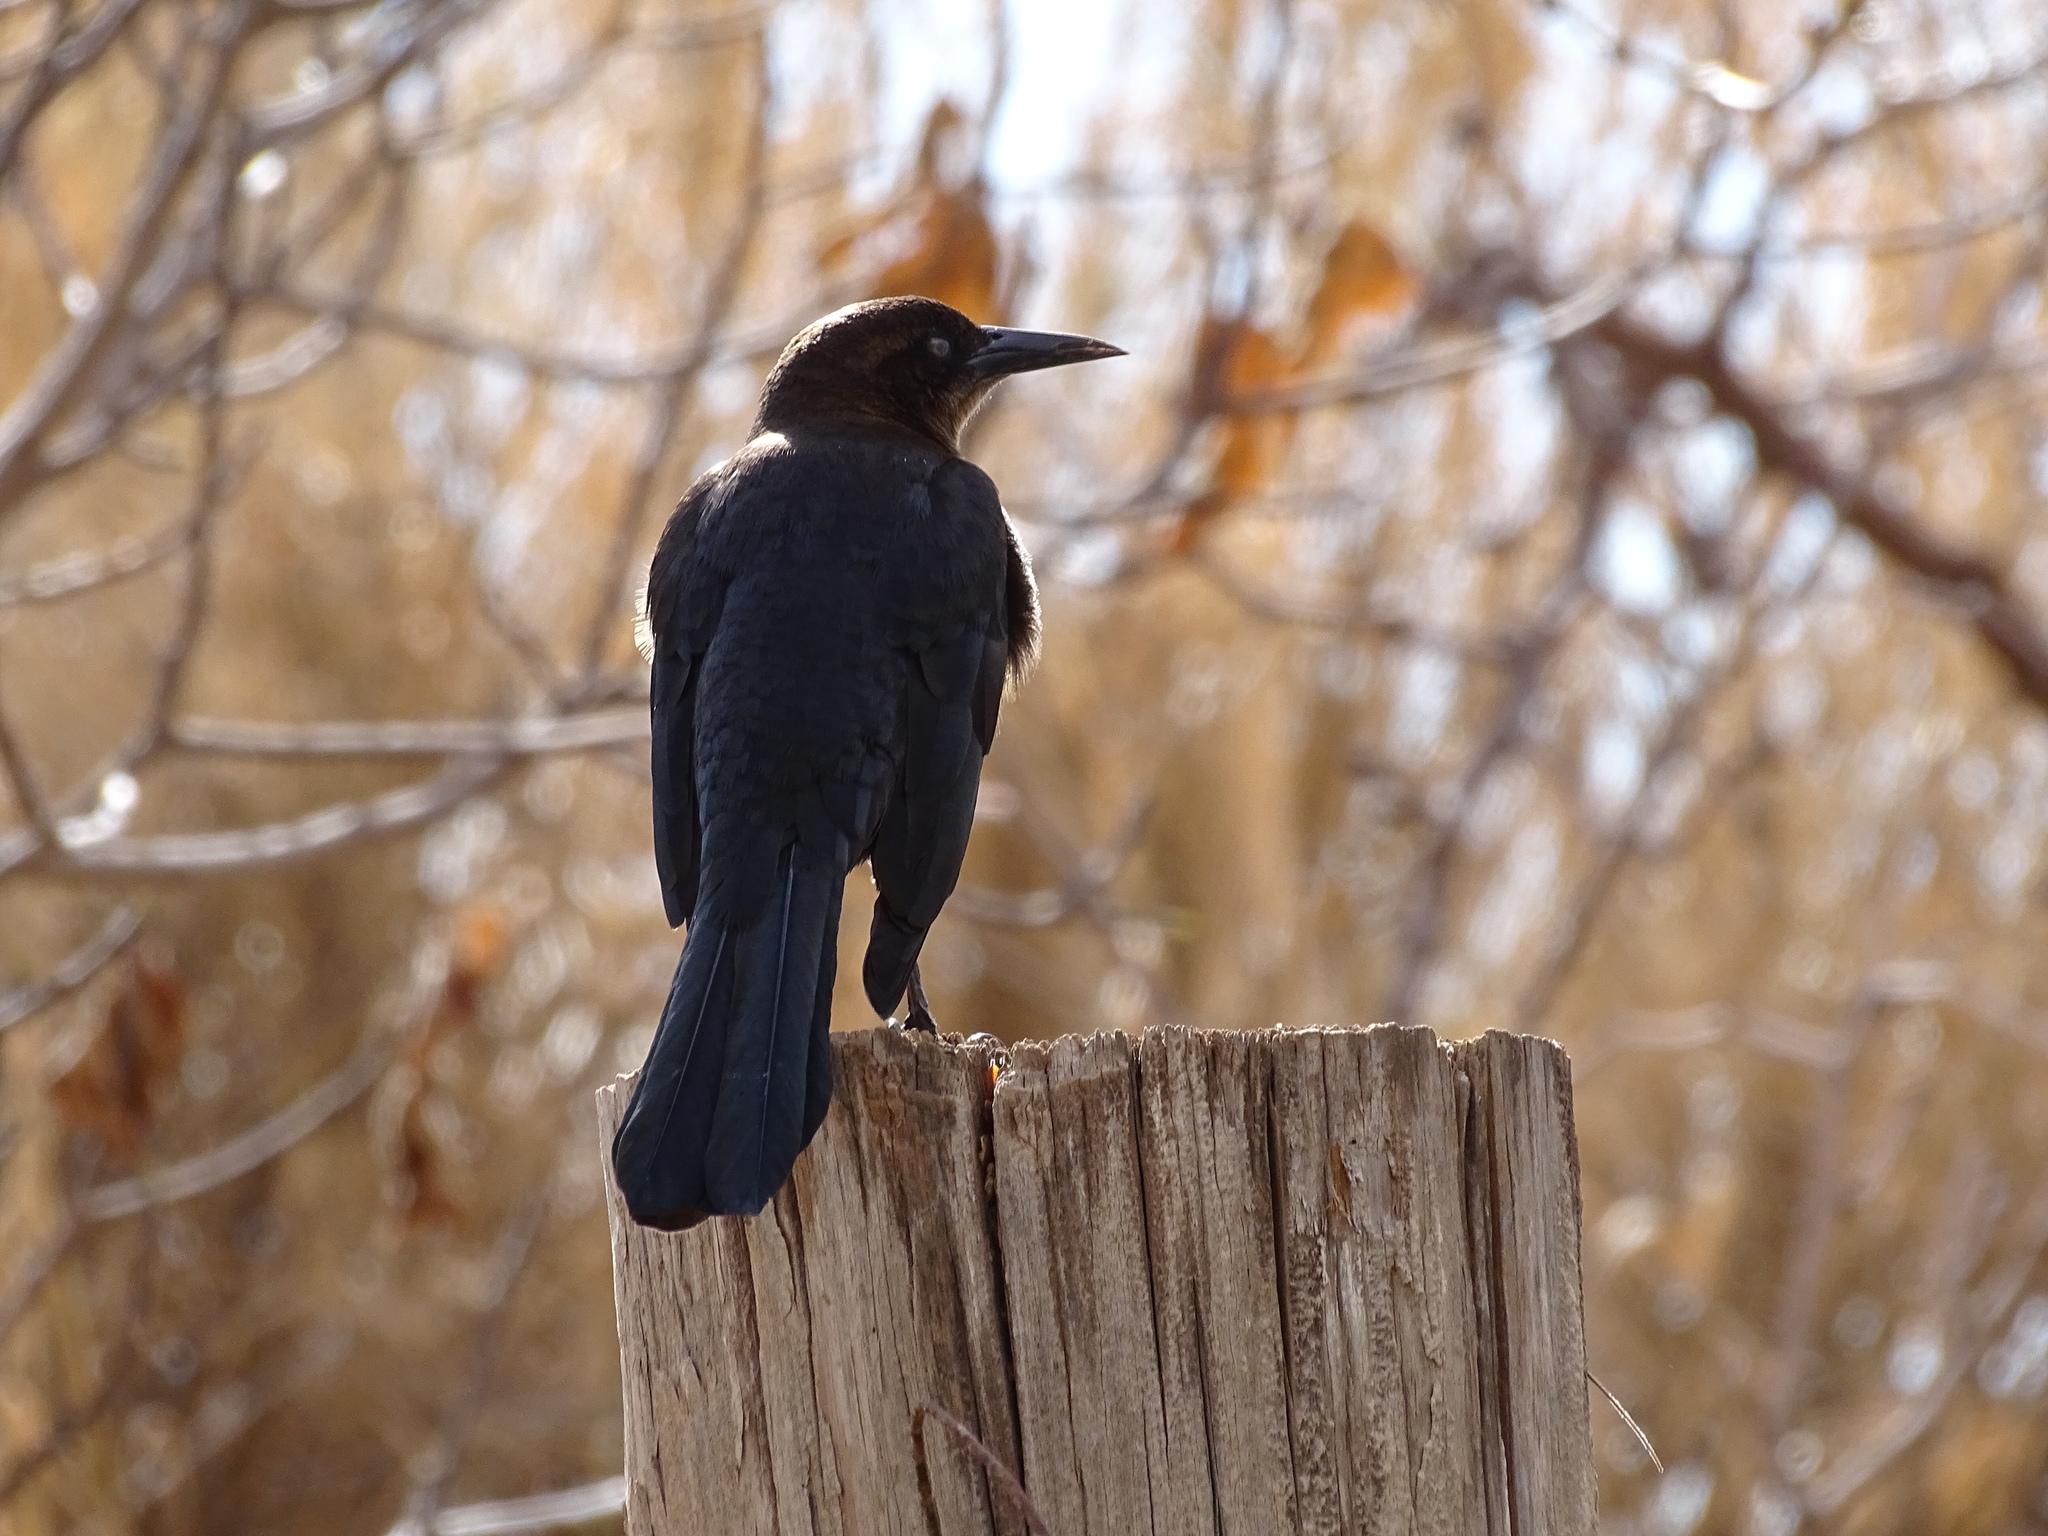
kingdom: Animalia
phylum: Chordata
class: Aves
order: Passeriformes
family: Icteridae
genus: Quiscalus
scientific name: Quiscalus mexicanus
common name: Great-tailed grackle
